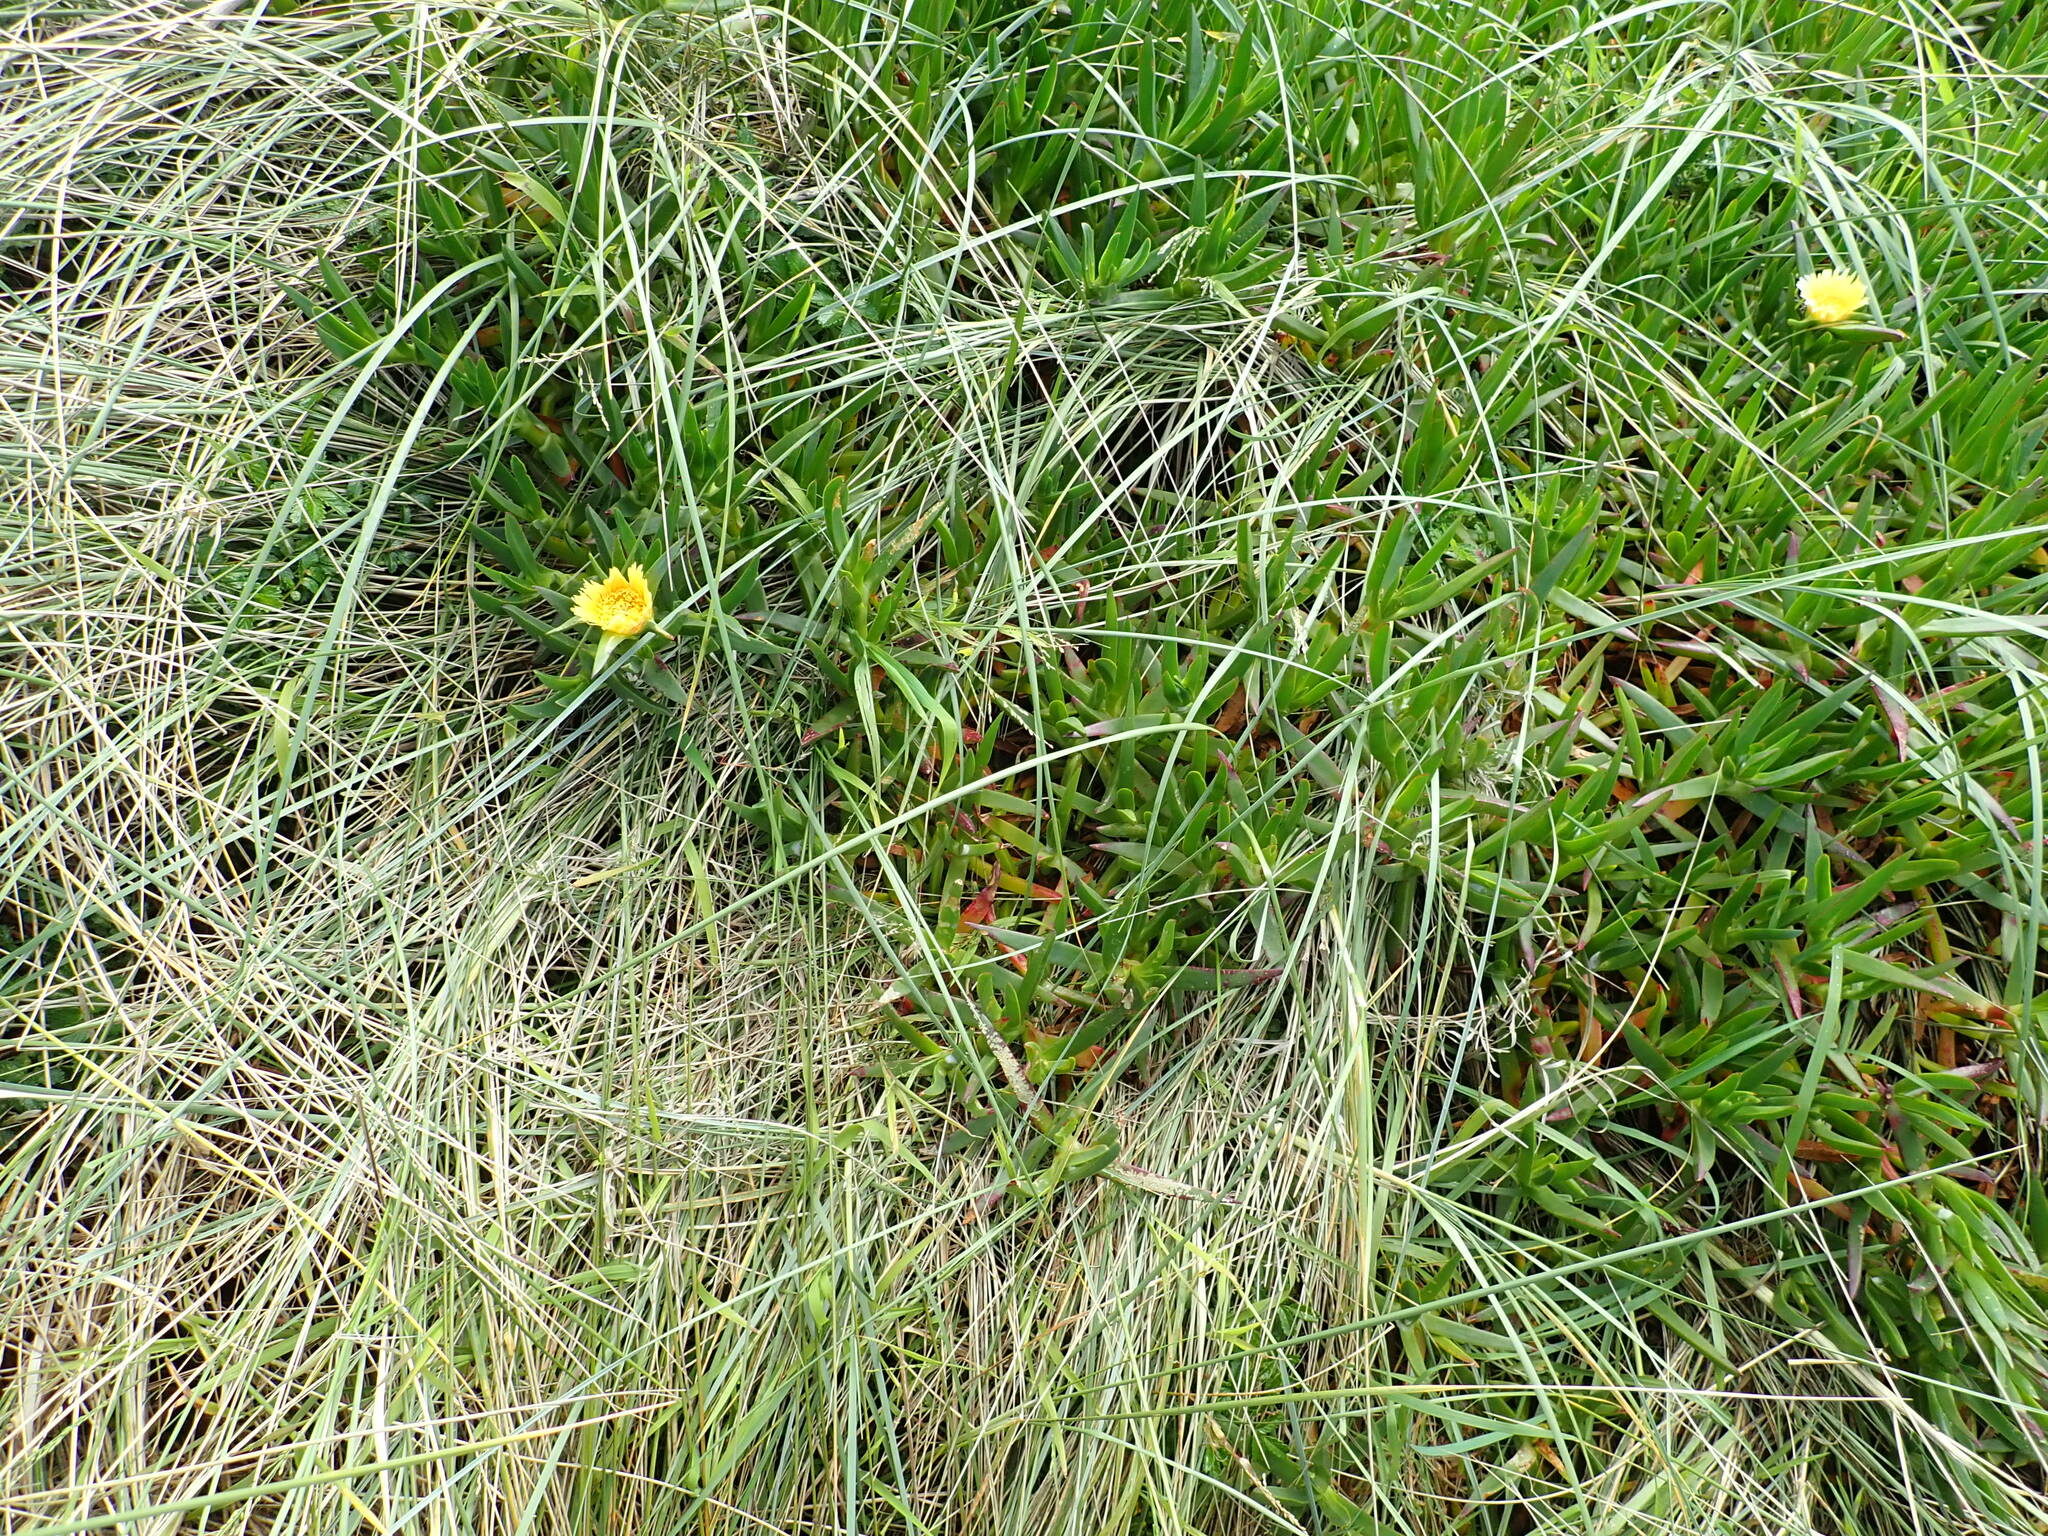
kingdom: Plantae
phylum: Tracheophyta
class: Magnoliopsida
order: Caryophyllales
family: Aizoaceae
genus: Carpobrotus
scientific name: Carpobrotus edulis
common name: Hottentot-fig
